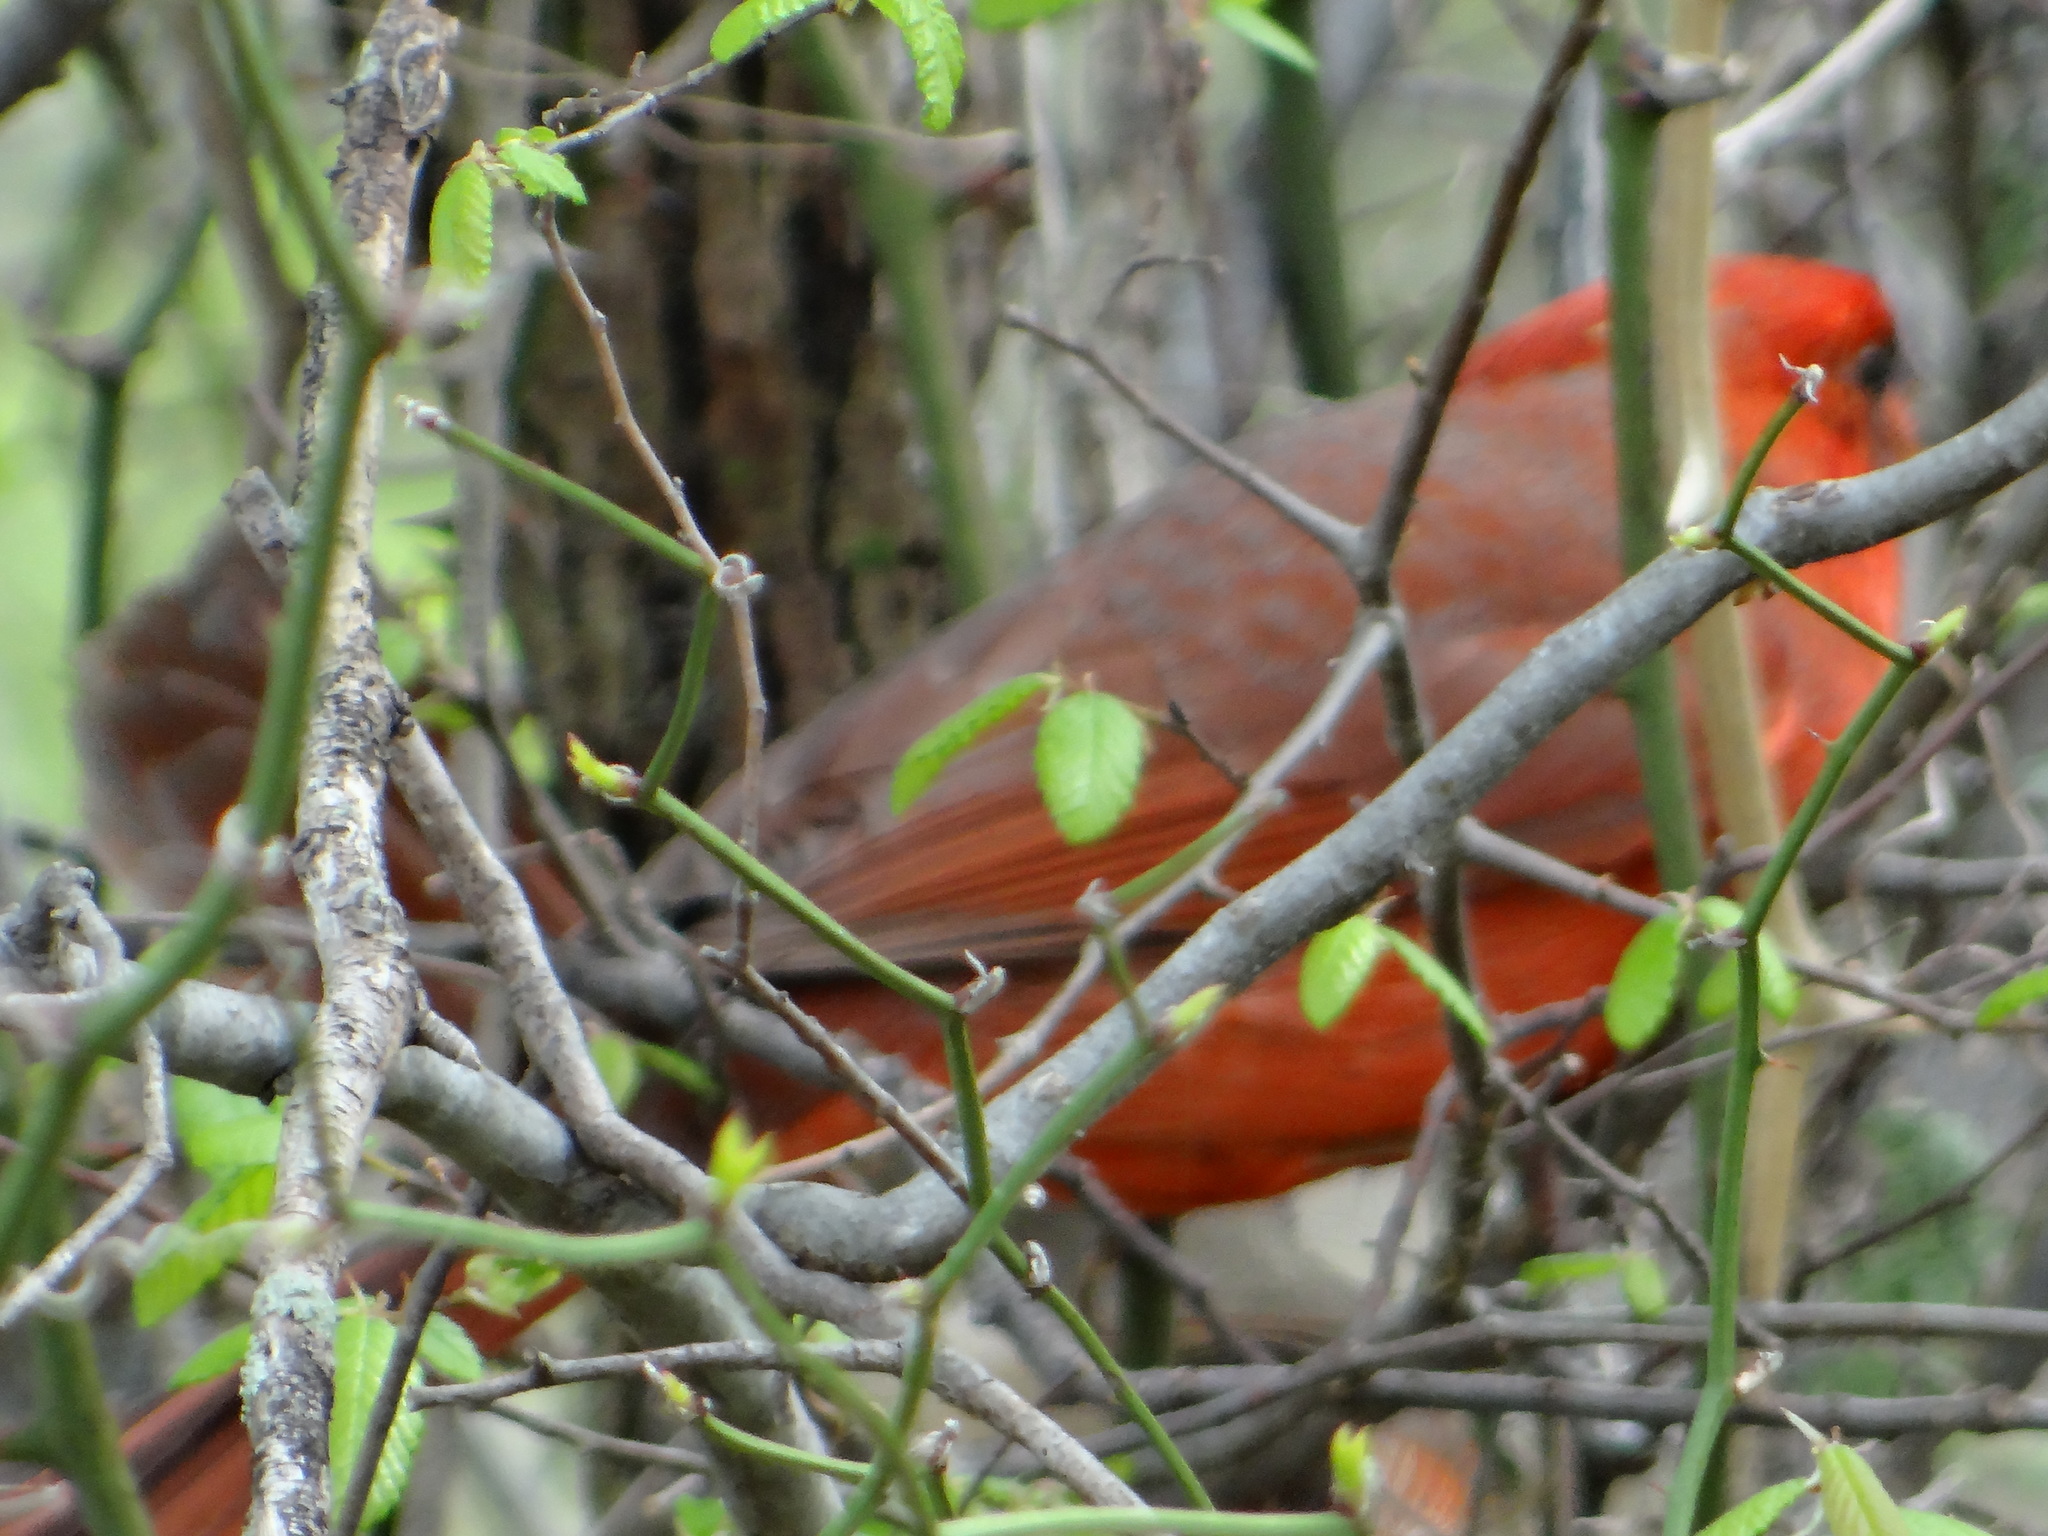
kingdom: Animalia
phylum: Chordata
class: Aves
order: Passeriformes
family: Cardinalidae
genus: Cardinalis
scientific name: Cardinalis cardinalis
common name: Northern cardinal
